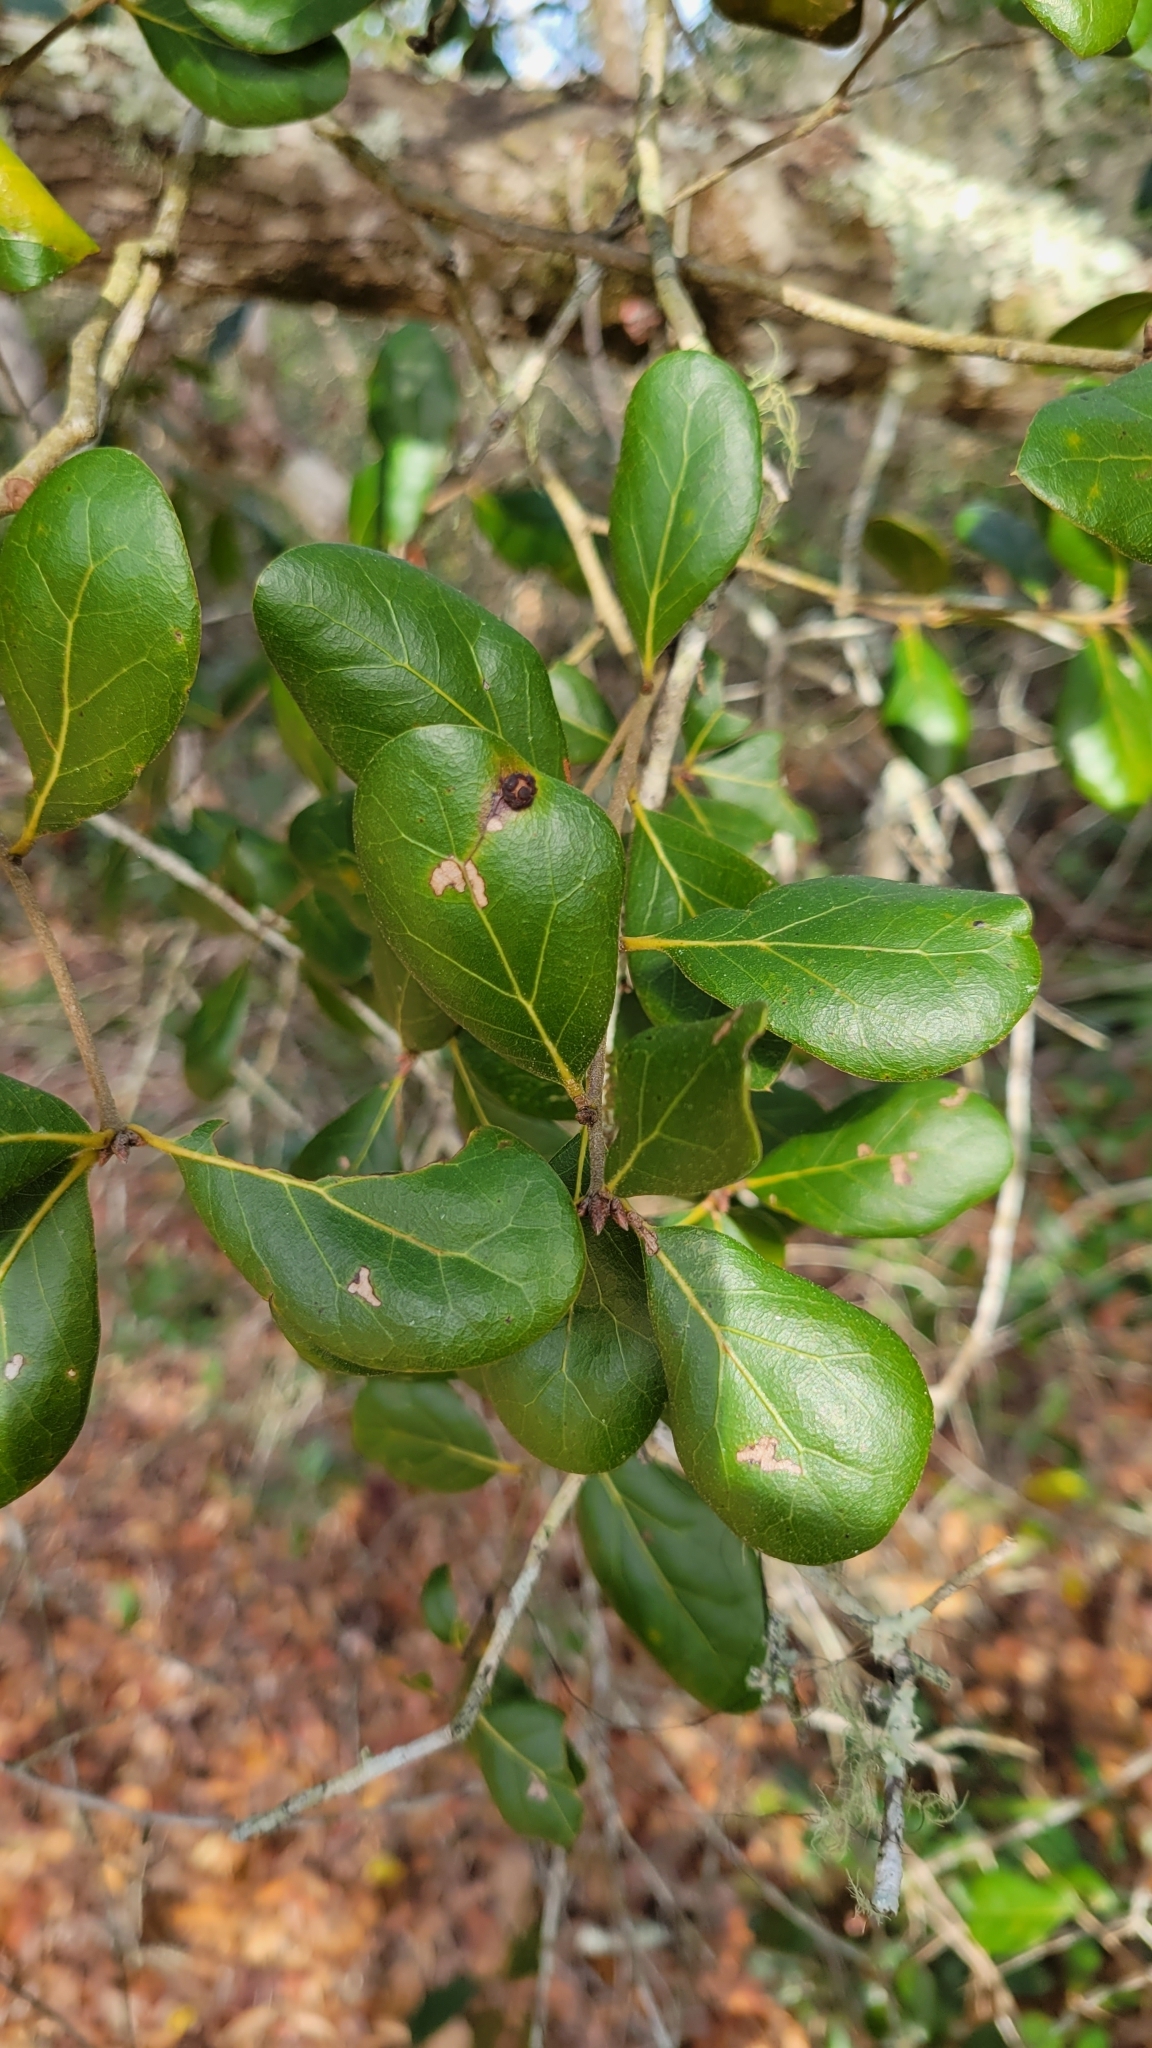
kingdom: Plantae
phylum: Tracheophyta
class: Magnoliopsida
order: Fagales
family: Fagaceae
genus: Quercus
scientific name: Quercus myrtifolia
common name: Myrtle oak
